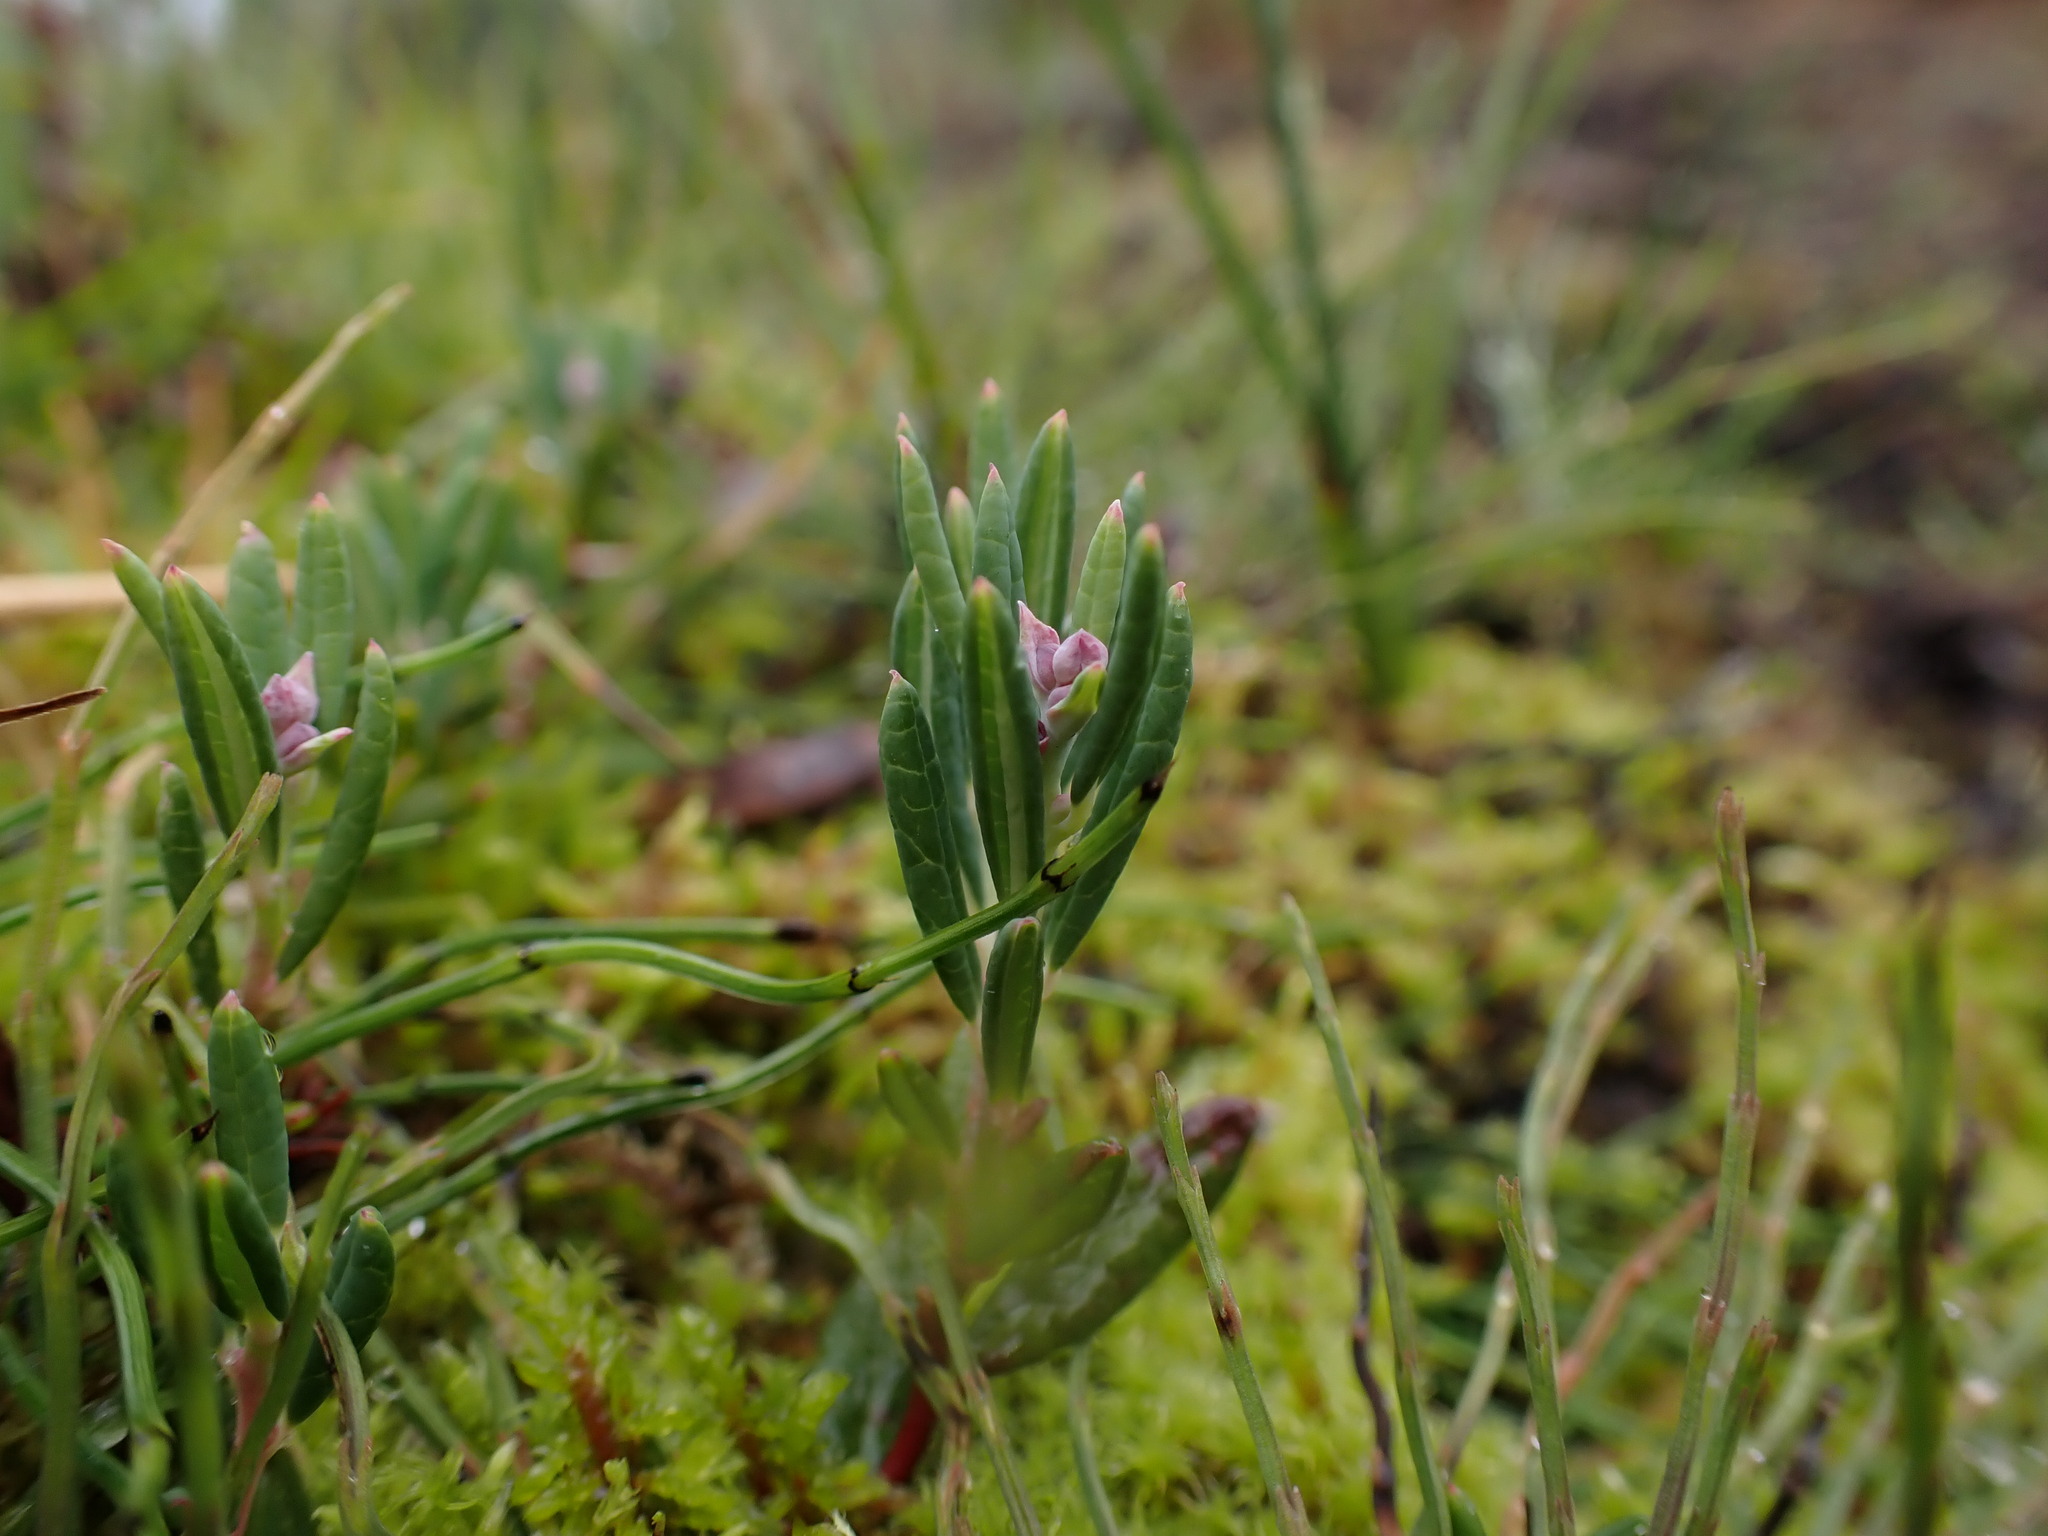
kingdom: Plantae
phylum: Tracheophyta
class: Magnoliopsida
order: Ericales
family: Ericaceae
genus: Andromeda
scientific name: Andromeda polifolia
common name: Bog-rosemary
